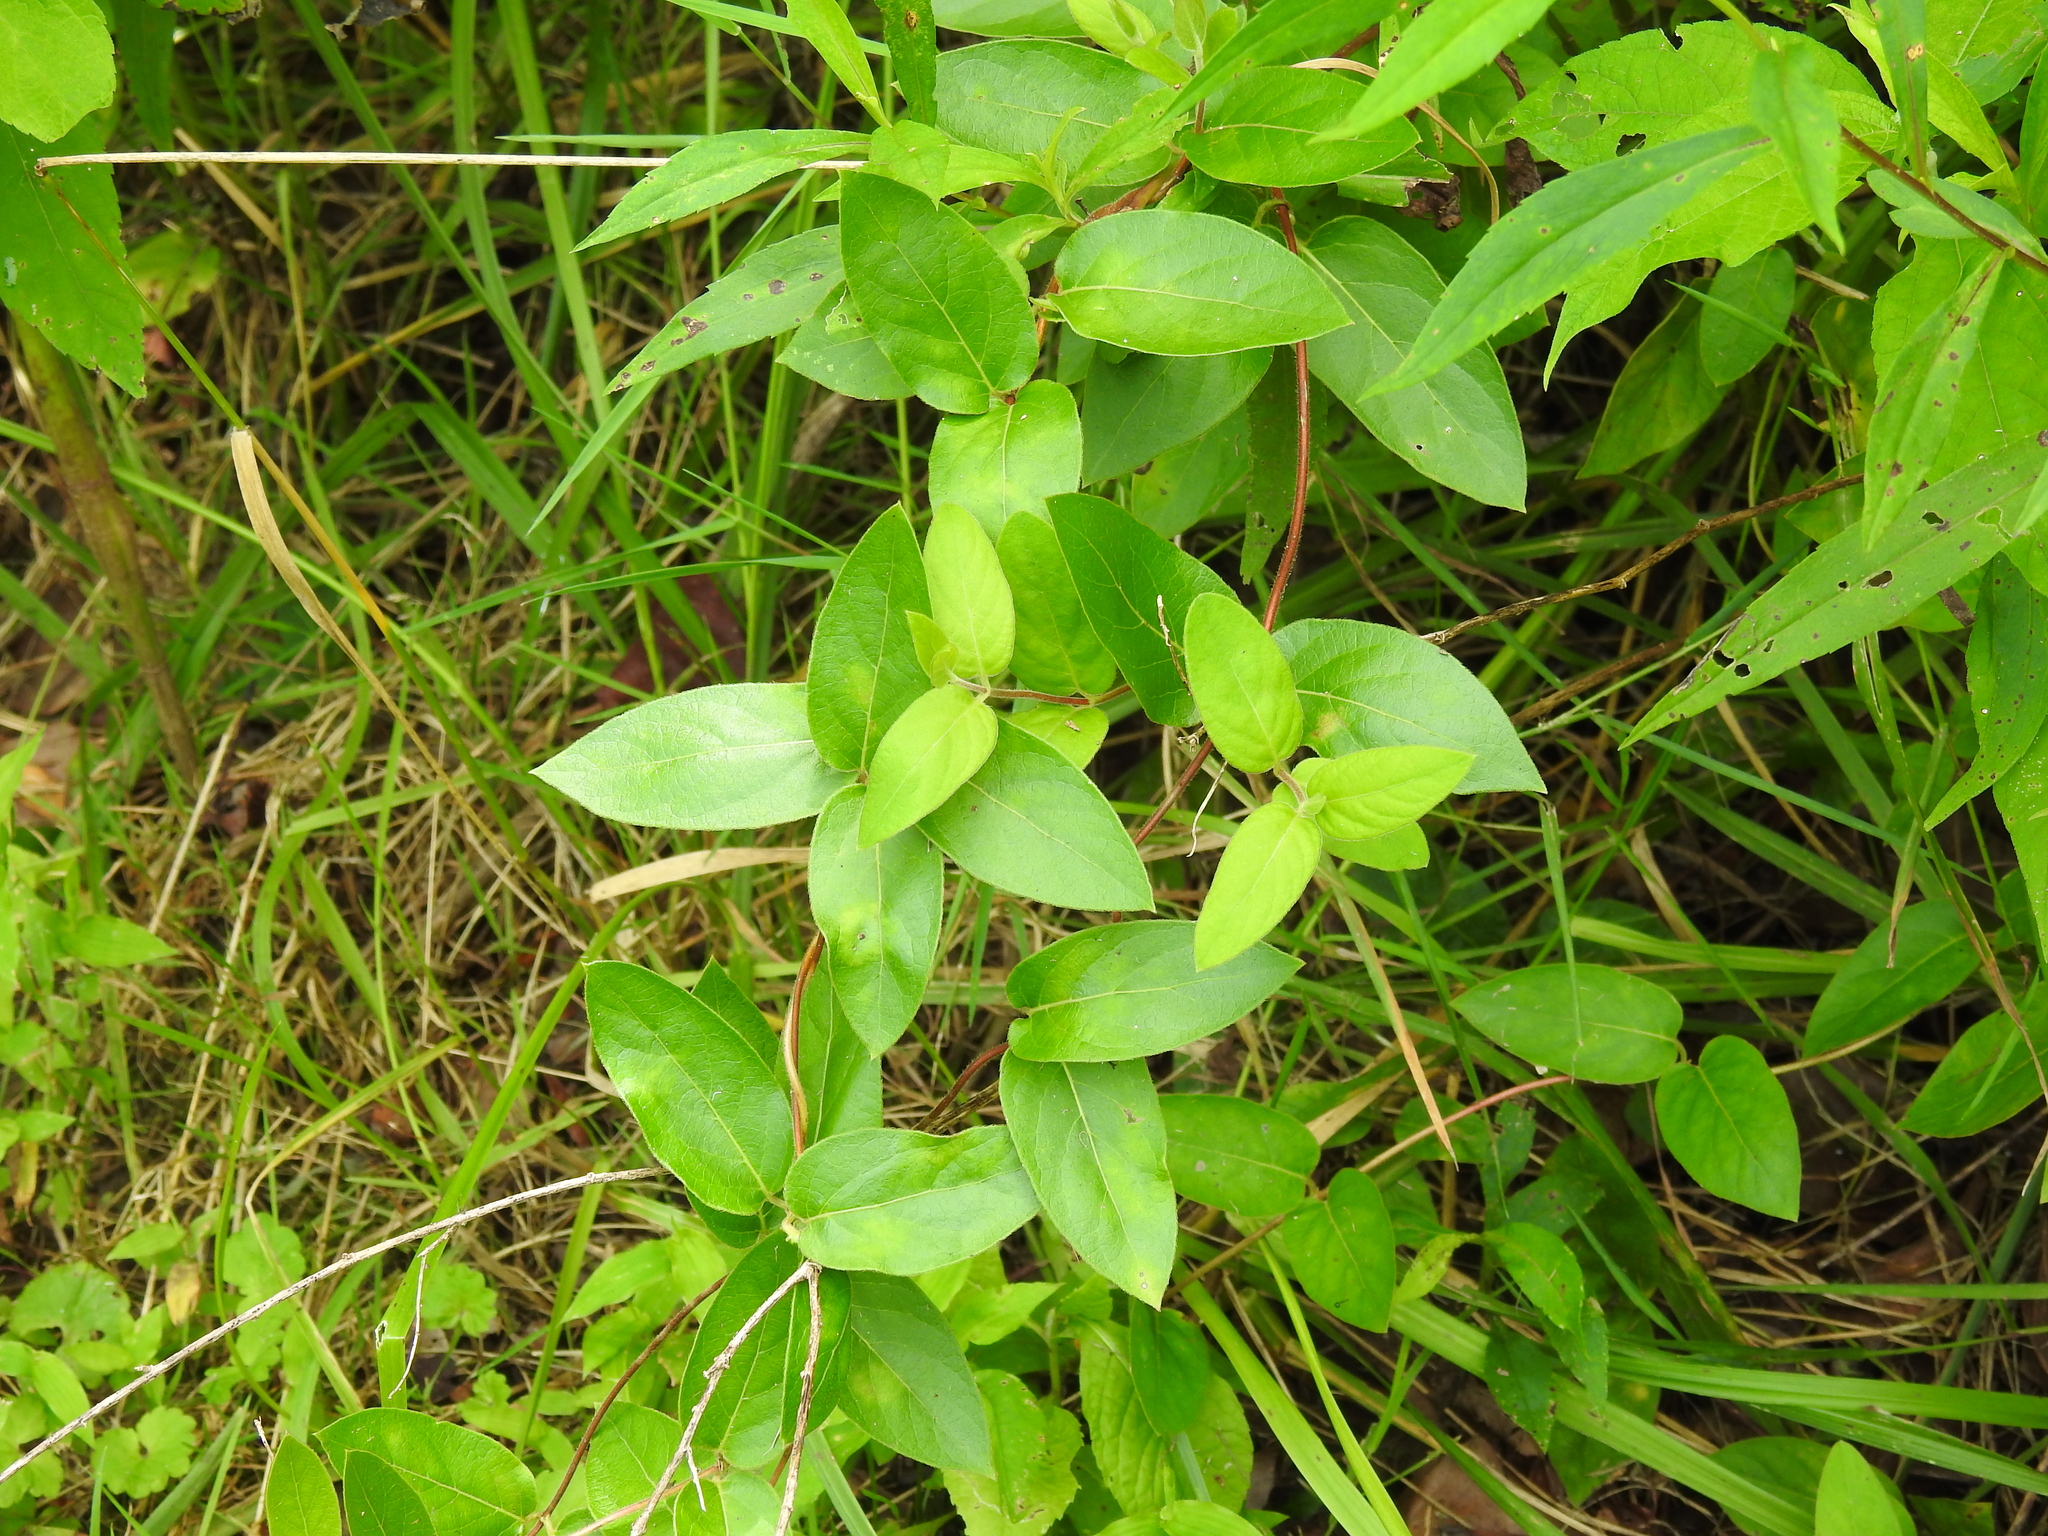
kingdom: Plantae
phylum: Tracheophyta
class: Magnoliopsida
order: Dipsacales
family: Caprifoliaceae
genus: Lonicera
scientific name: Lonicera japonica
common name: Japanese honeysuckle
